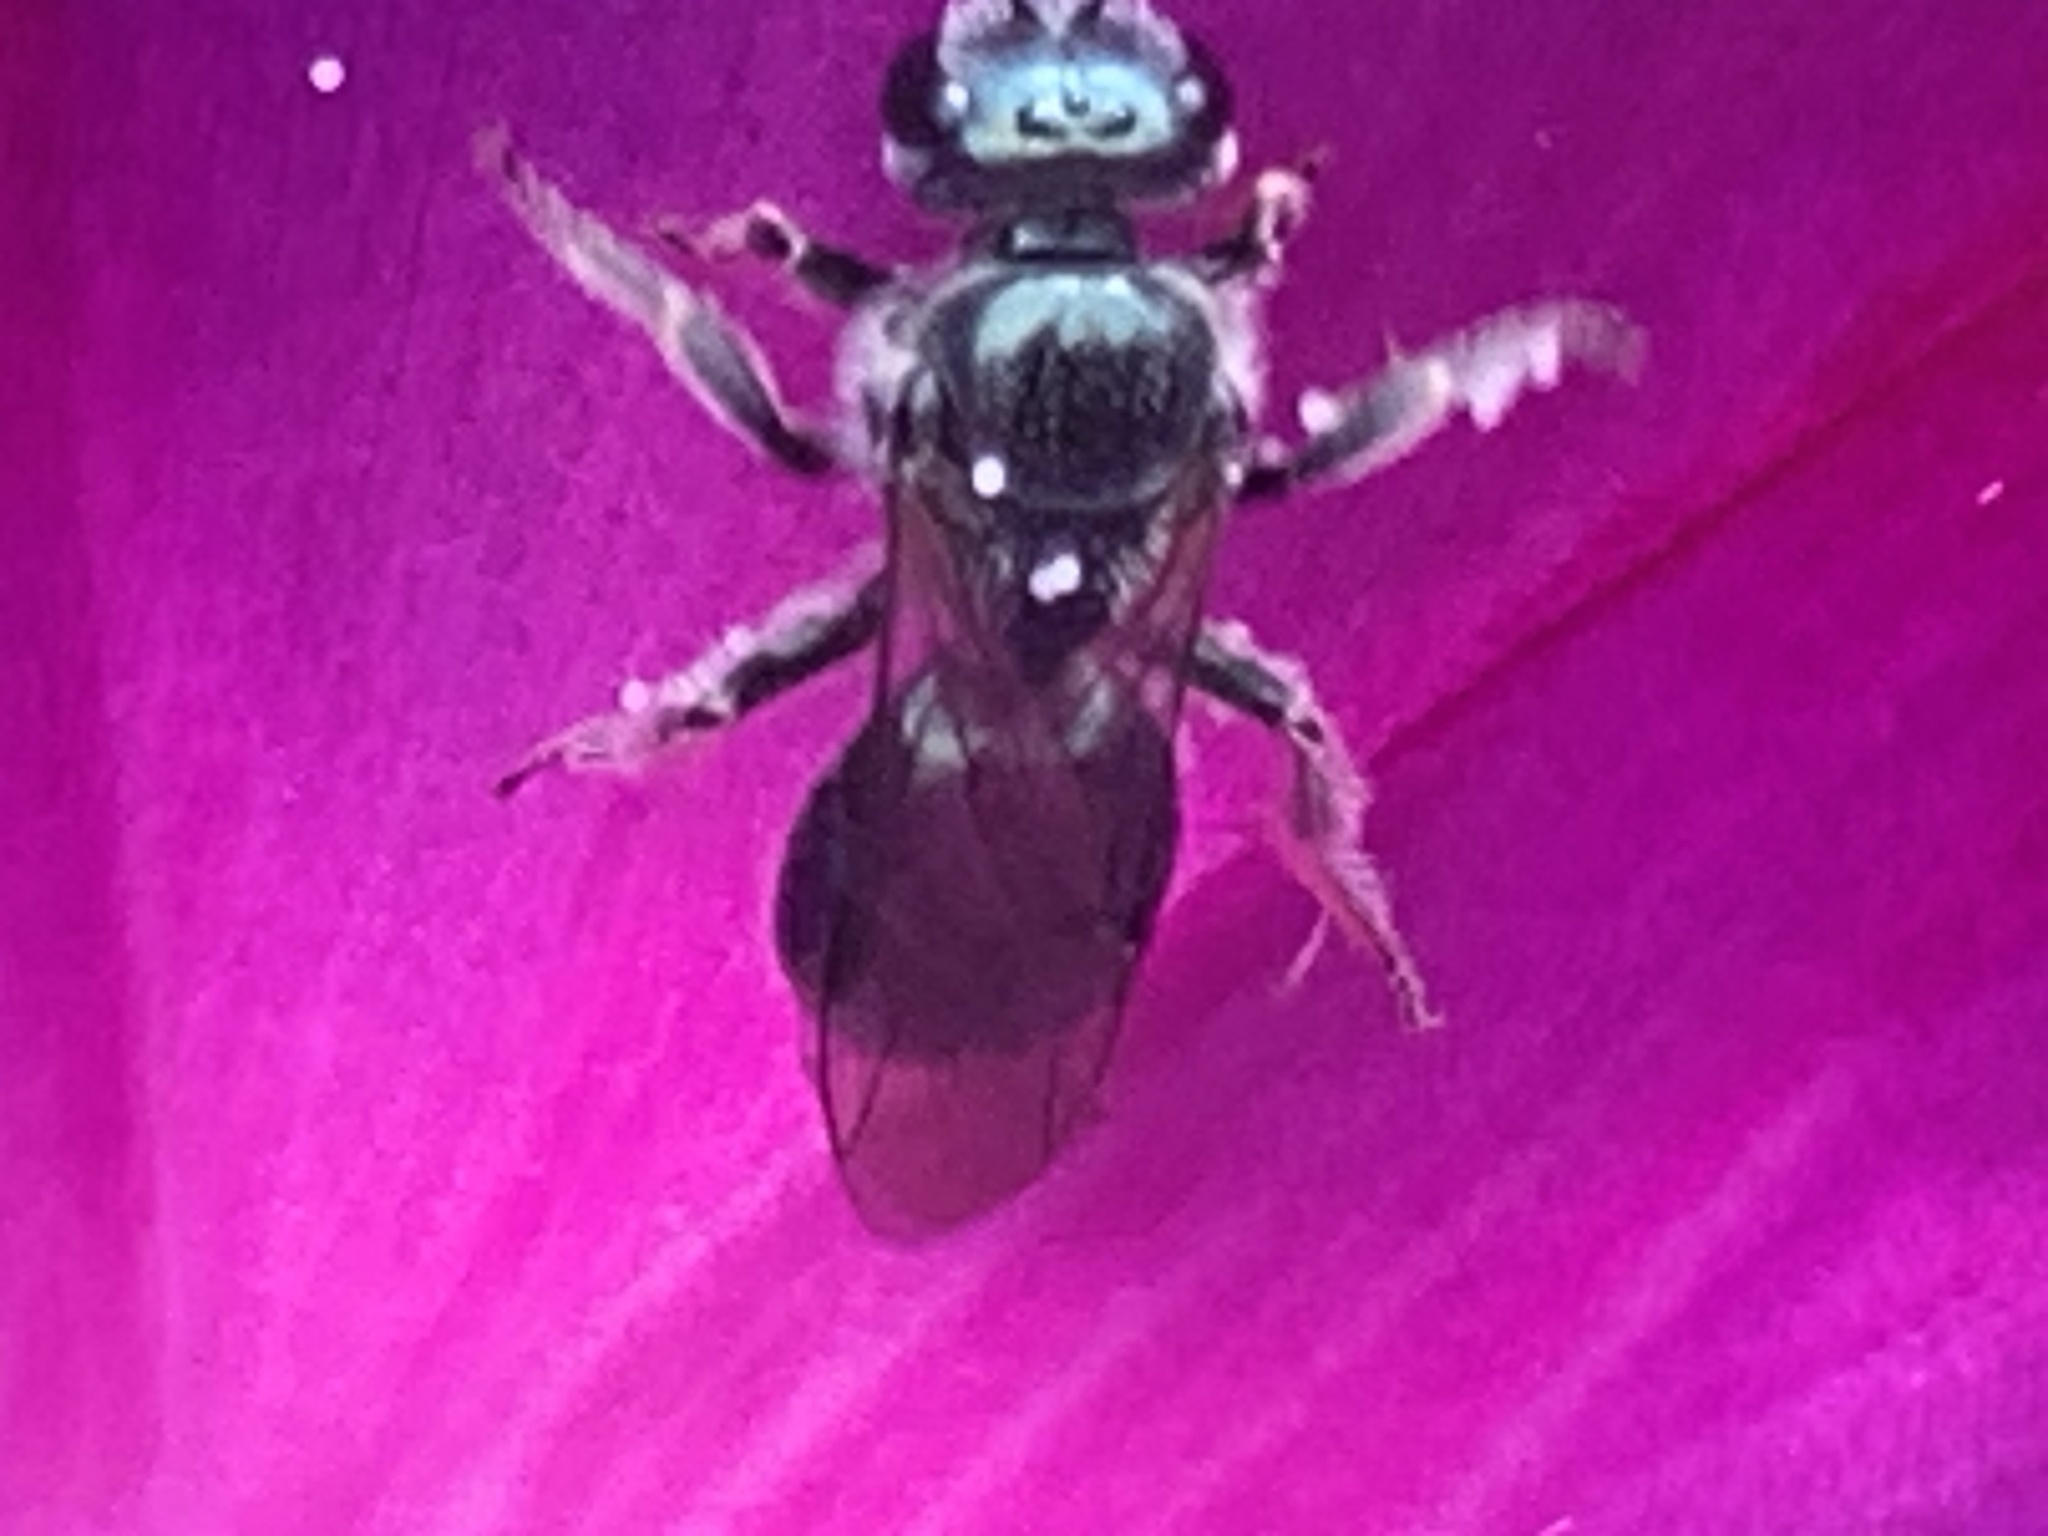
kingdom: Animalia
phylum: Arthropoda
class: Insecta
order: Hymenoptera
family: Apidae
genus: Zadontomerus
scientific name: Zadontomerus
